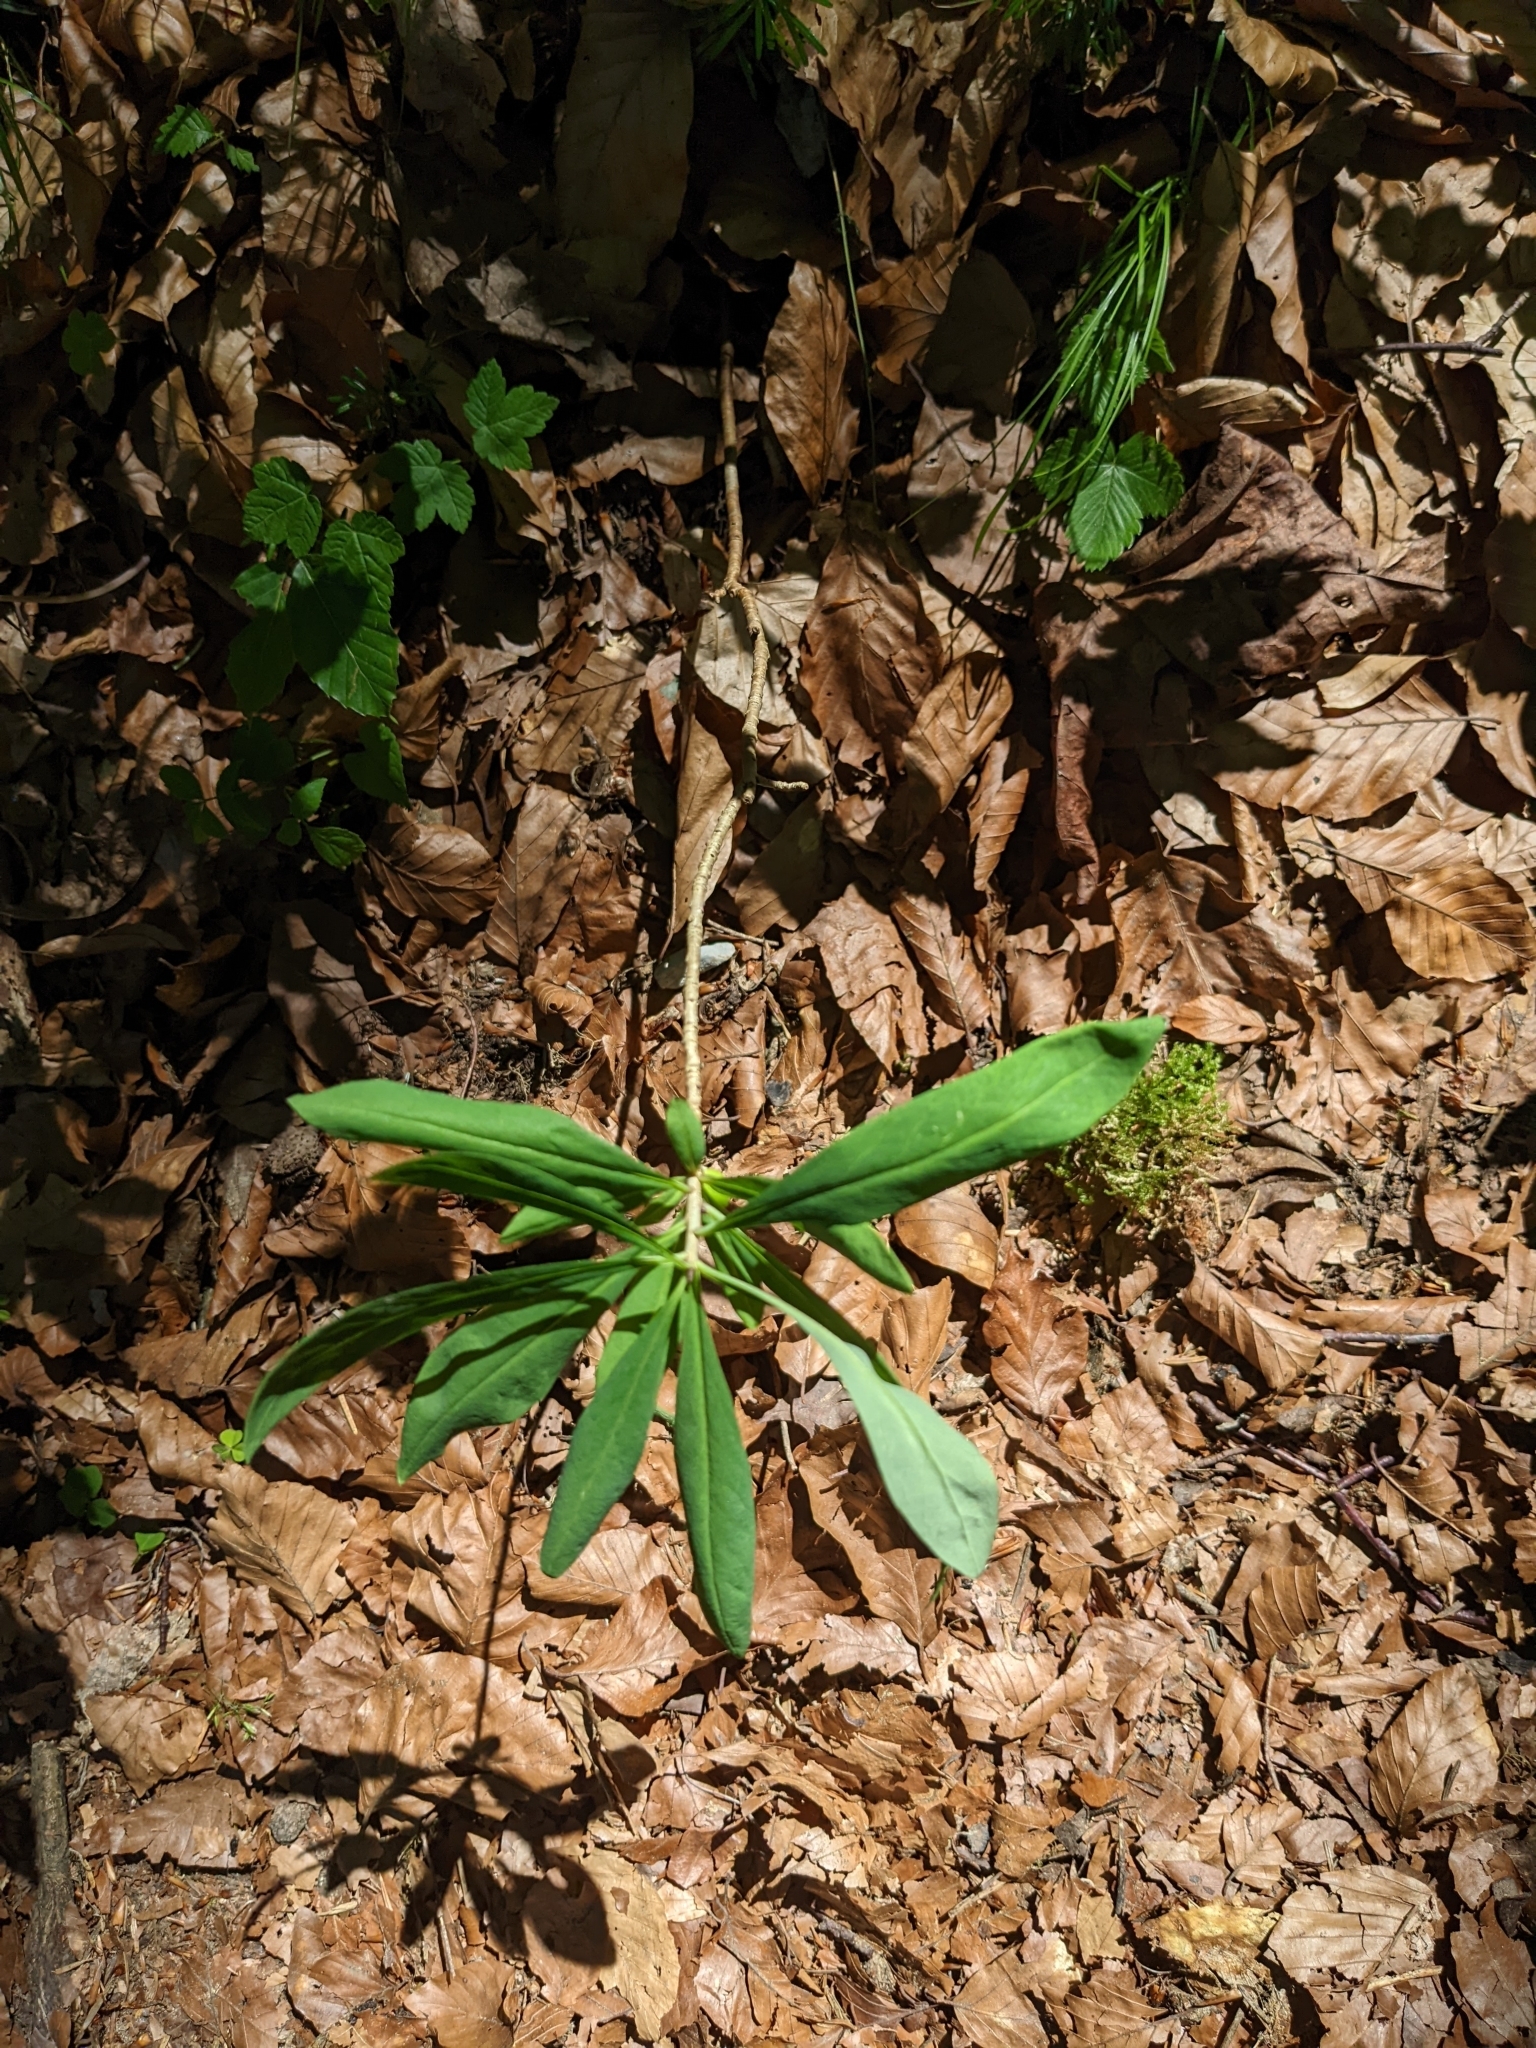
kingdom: Plantae
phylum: Tracheophyta
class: Magnoliopsida
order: Malvales
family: Thymelaeaceae
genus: Daphne
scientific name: Daphne mezereum
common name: Mezereon
